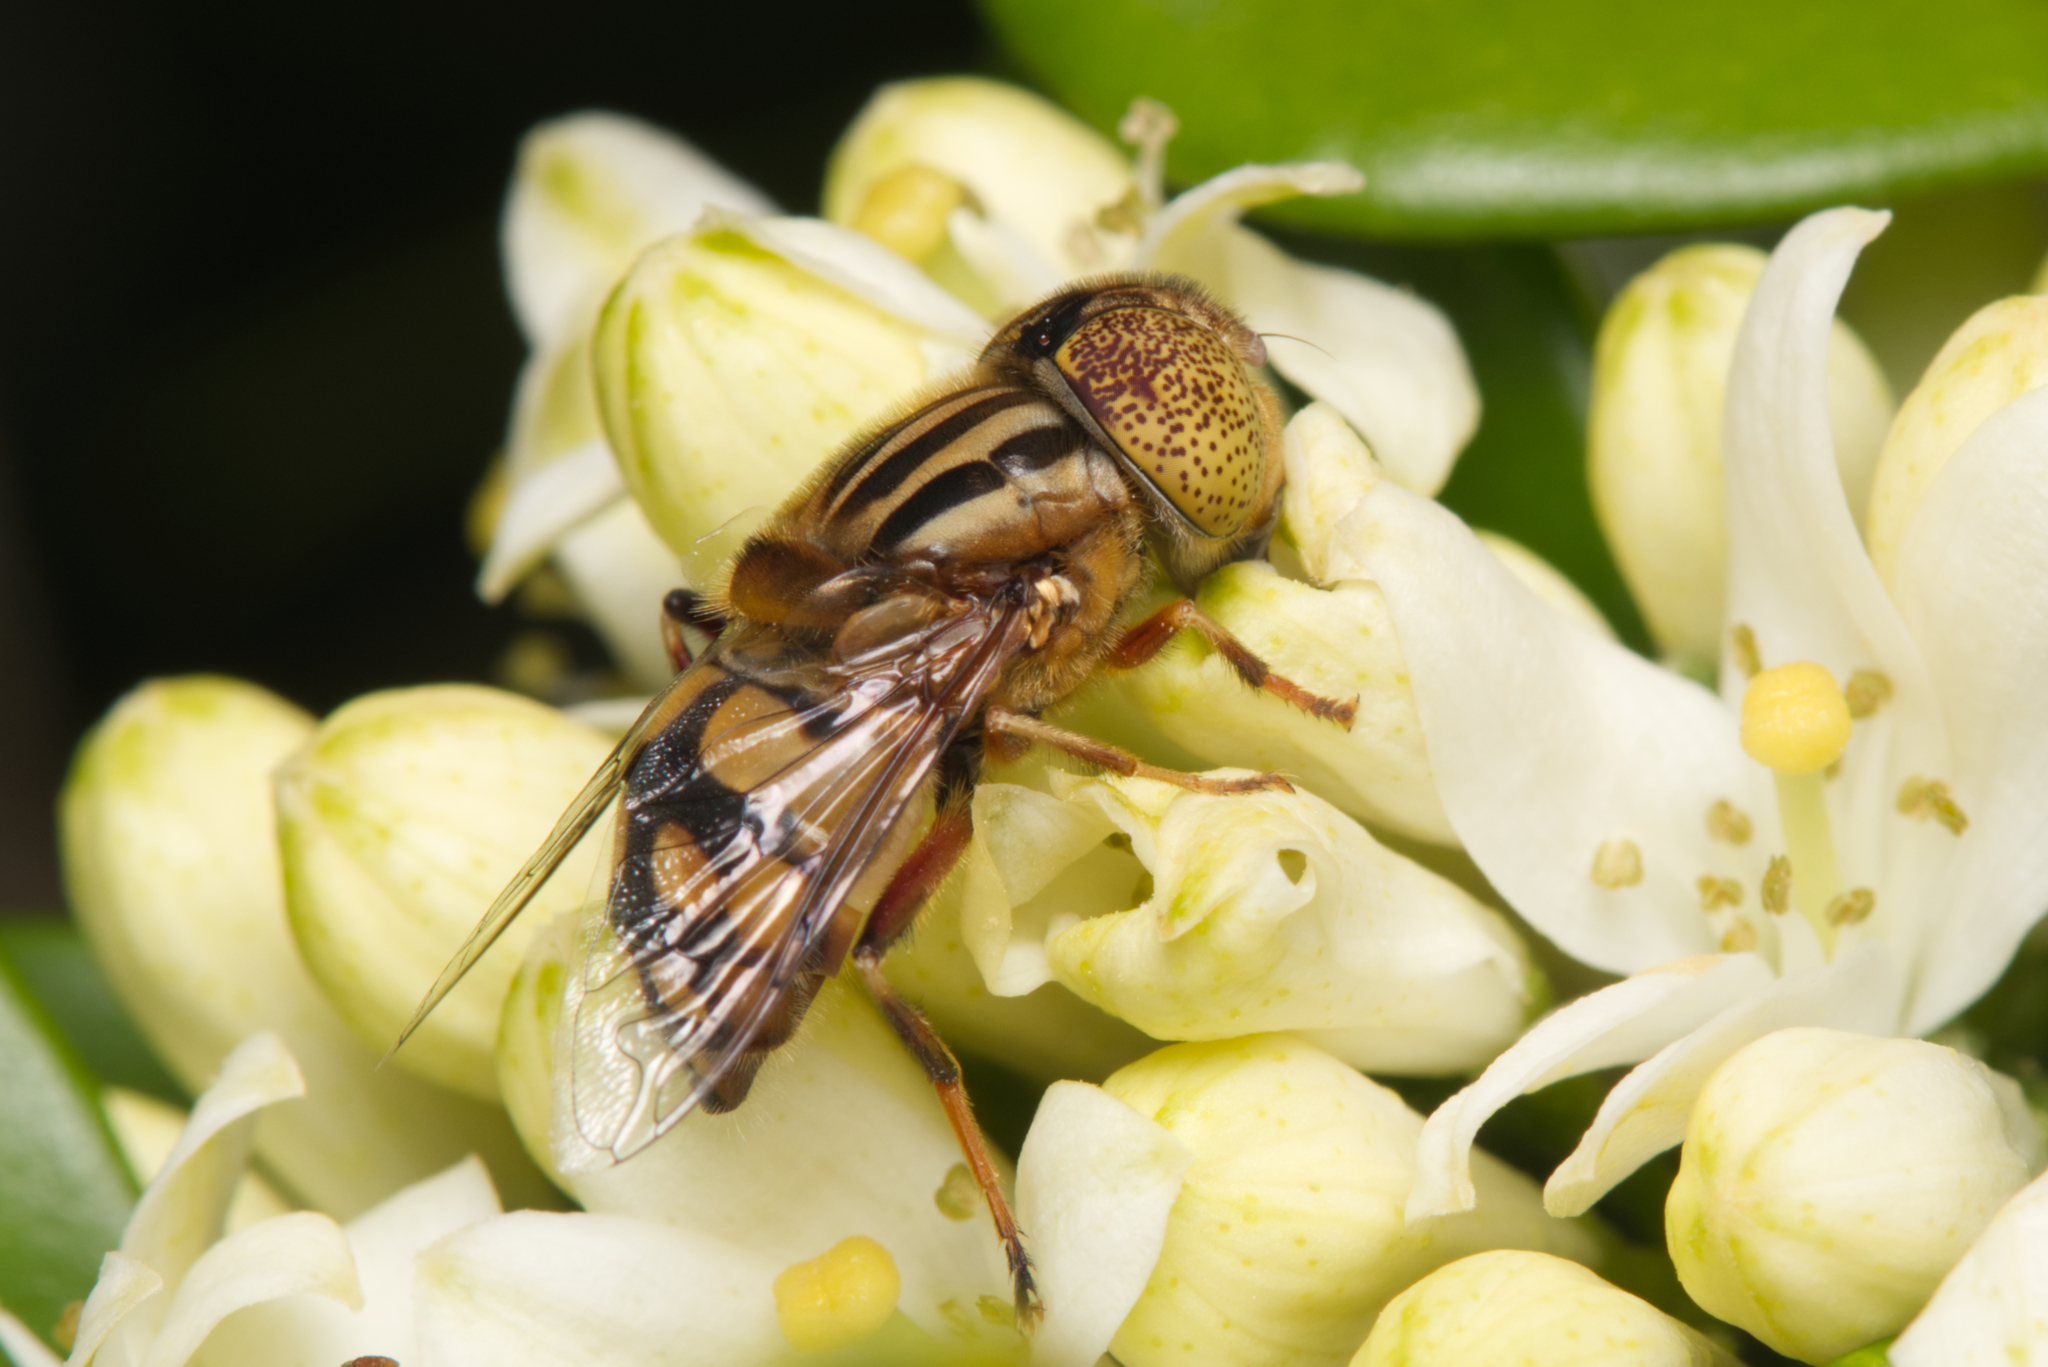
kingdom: Animalia
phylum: Arthropoda
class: Insecta
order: Diptera
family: Syrphidae
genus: Eristalinus
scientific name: Eristalinus punctulatus
